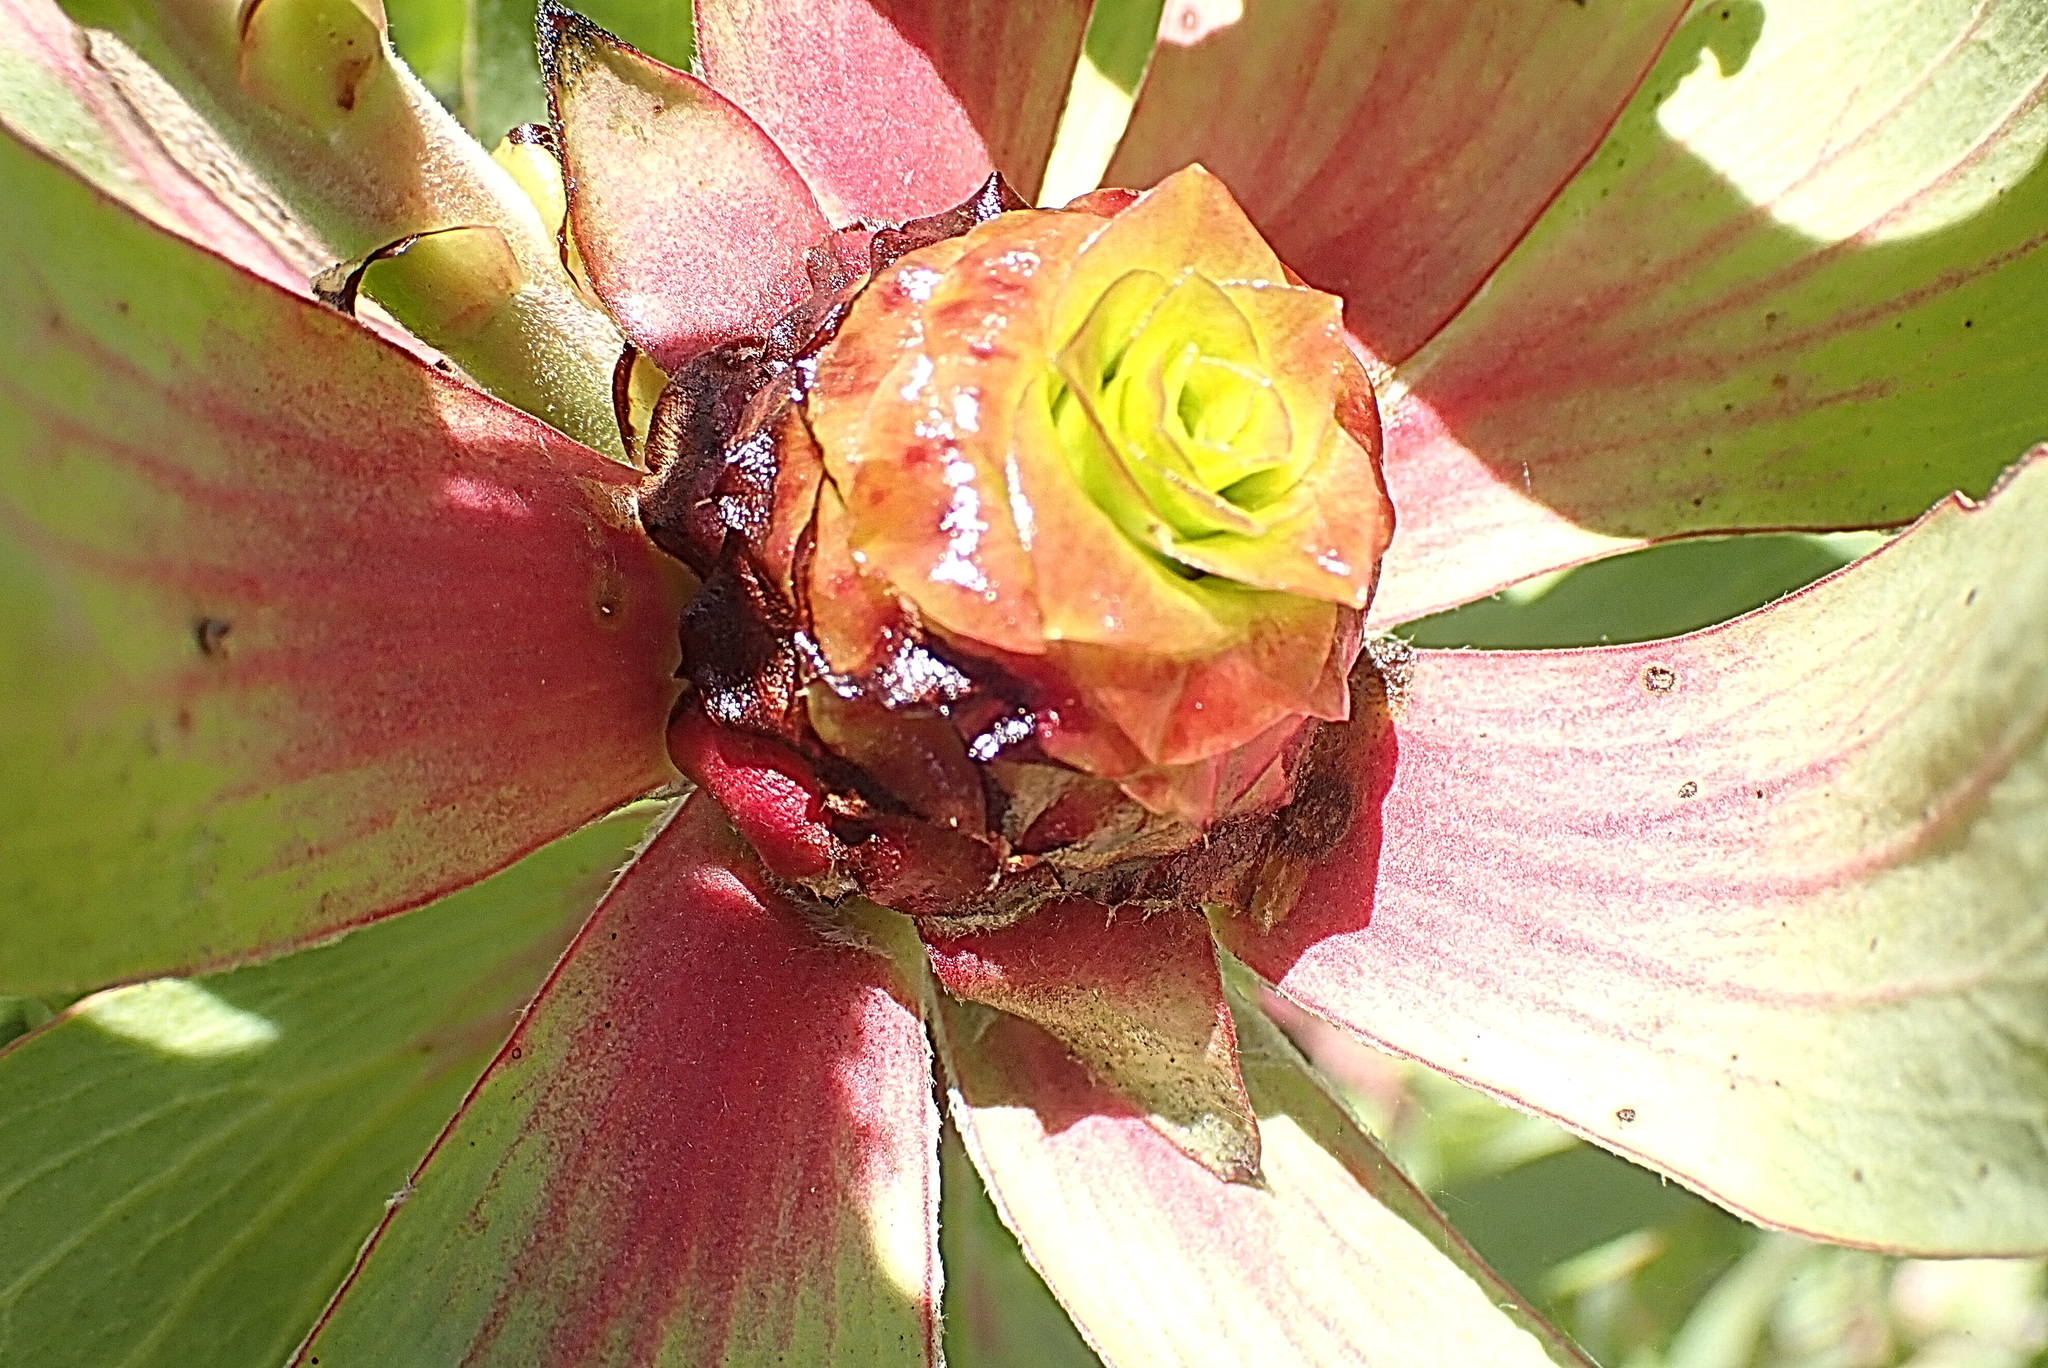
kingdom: Plantae
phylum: Tracheophyta
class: Magnoliopsida
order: Proteales
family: Proteaceae
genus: Leucadendron
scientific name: Leucadendron pubibracteolatum
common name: Purple-leaf conebush
